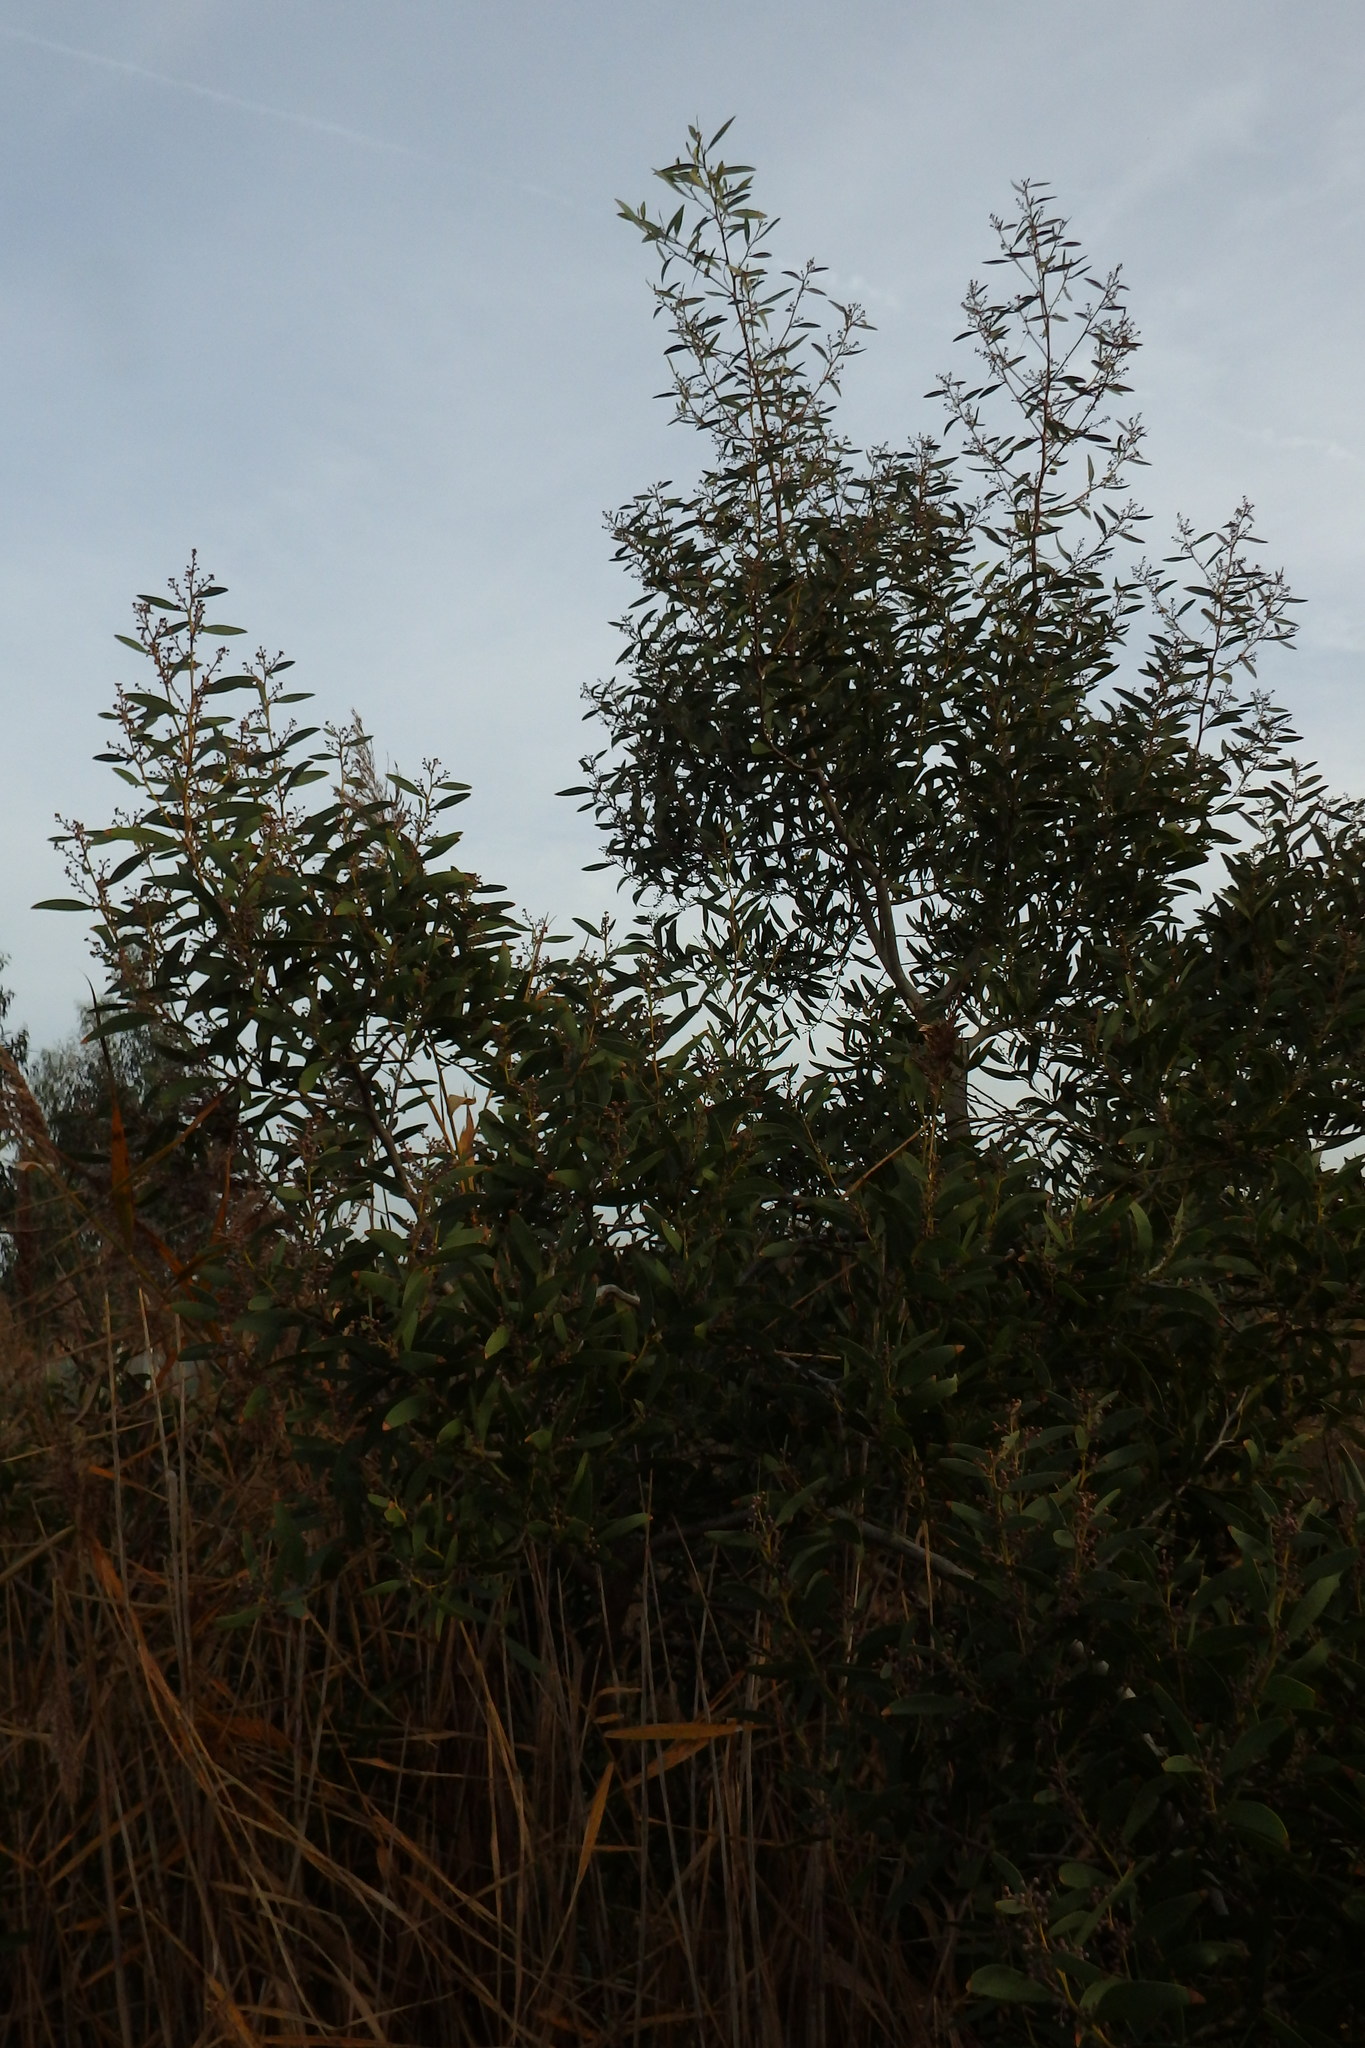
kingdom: Plantae
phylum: Tracheophyta
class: Magnoliopsida
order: Fabales
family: Fabaceae
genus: Acacia
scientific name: Acacia melanoxylon
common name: Blackwood
